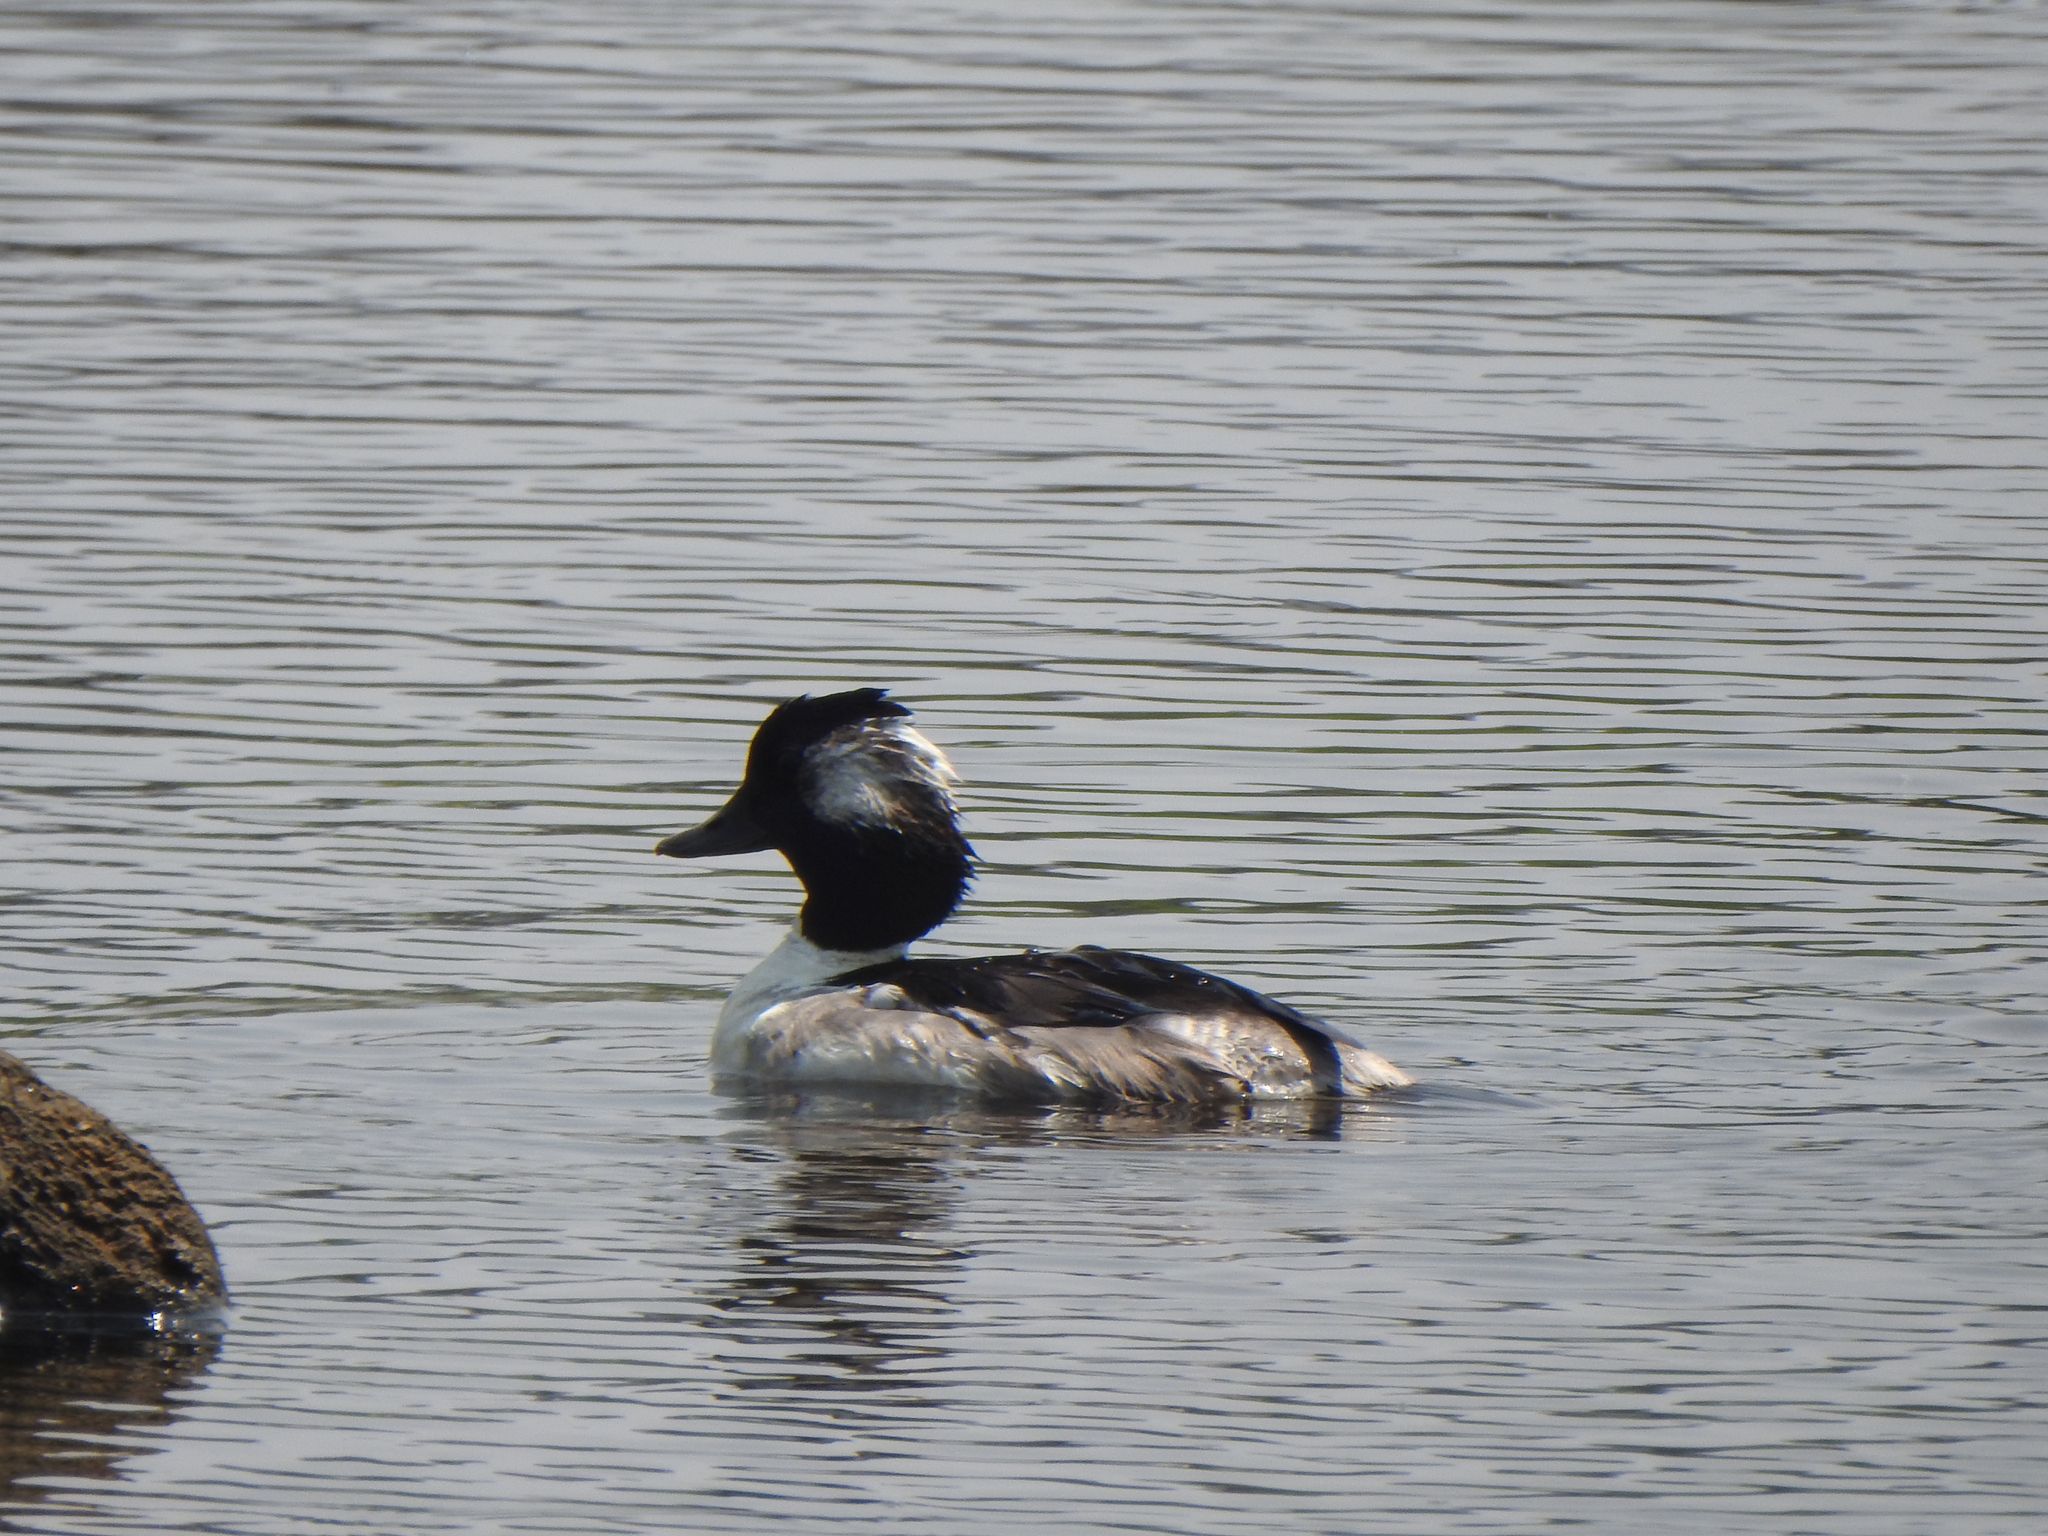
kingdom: Animalia
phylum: Chordata
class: Aves
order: Anseriformes
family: Anatidae
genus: Bucephala
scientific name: Bucephala albeola
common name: Bufflehead
